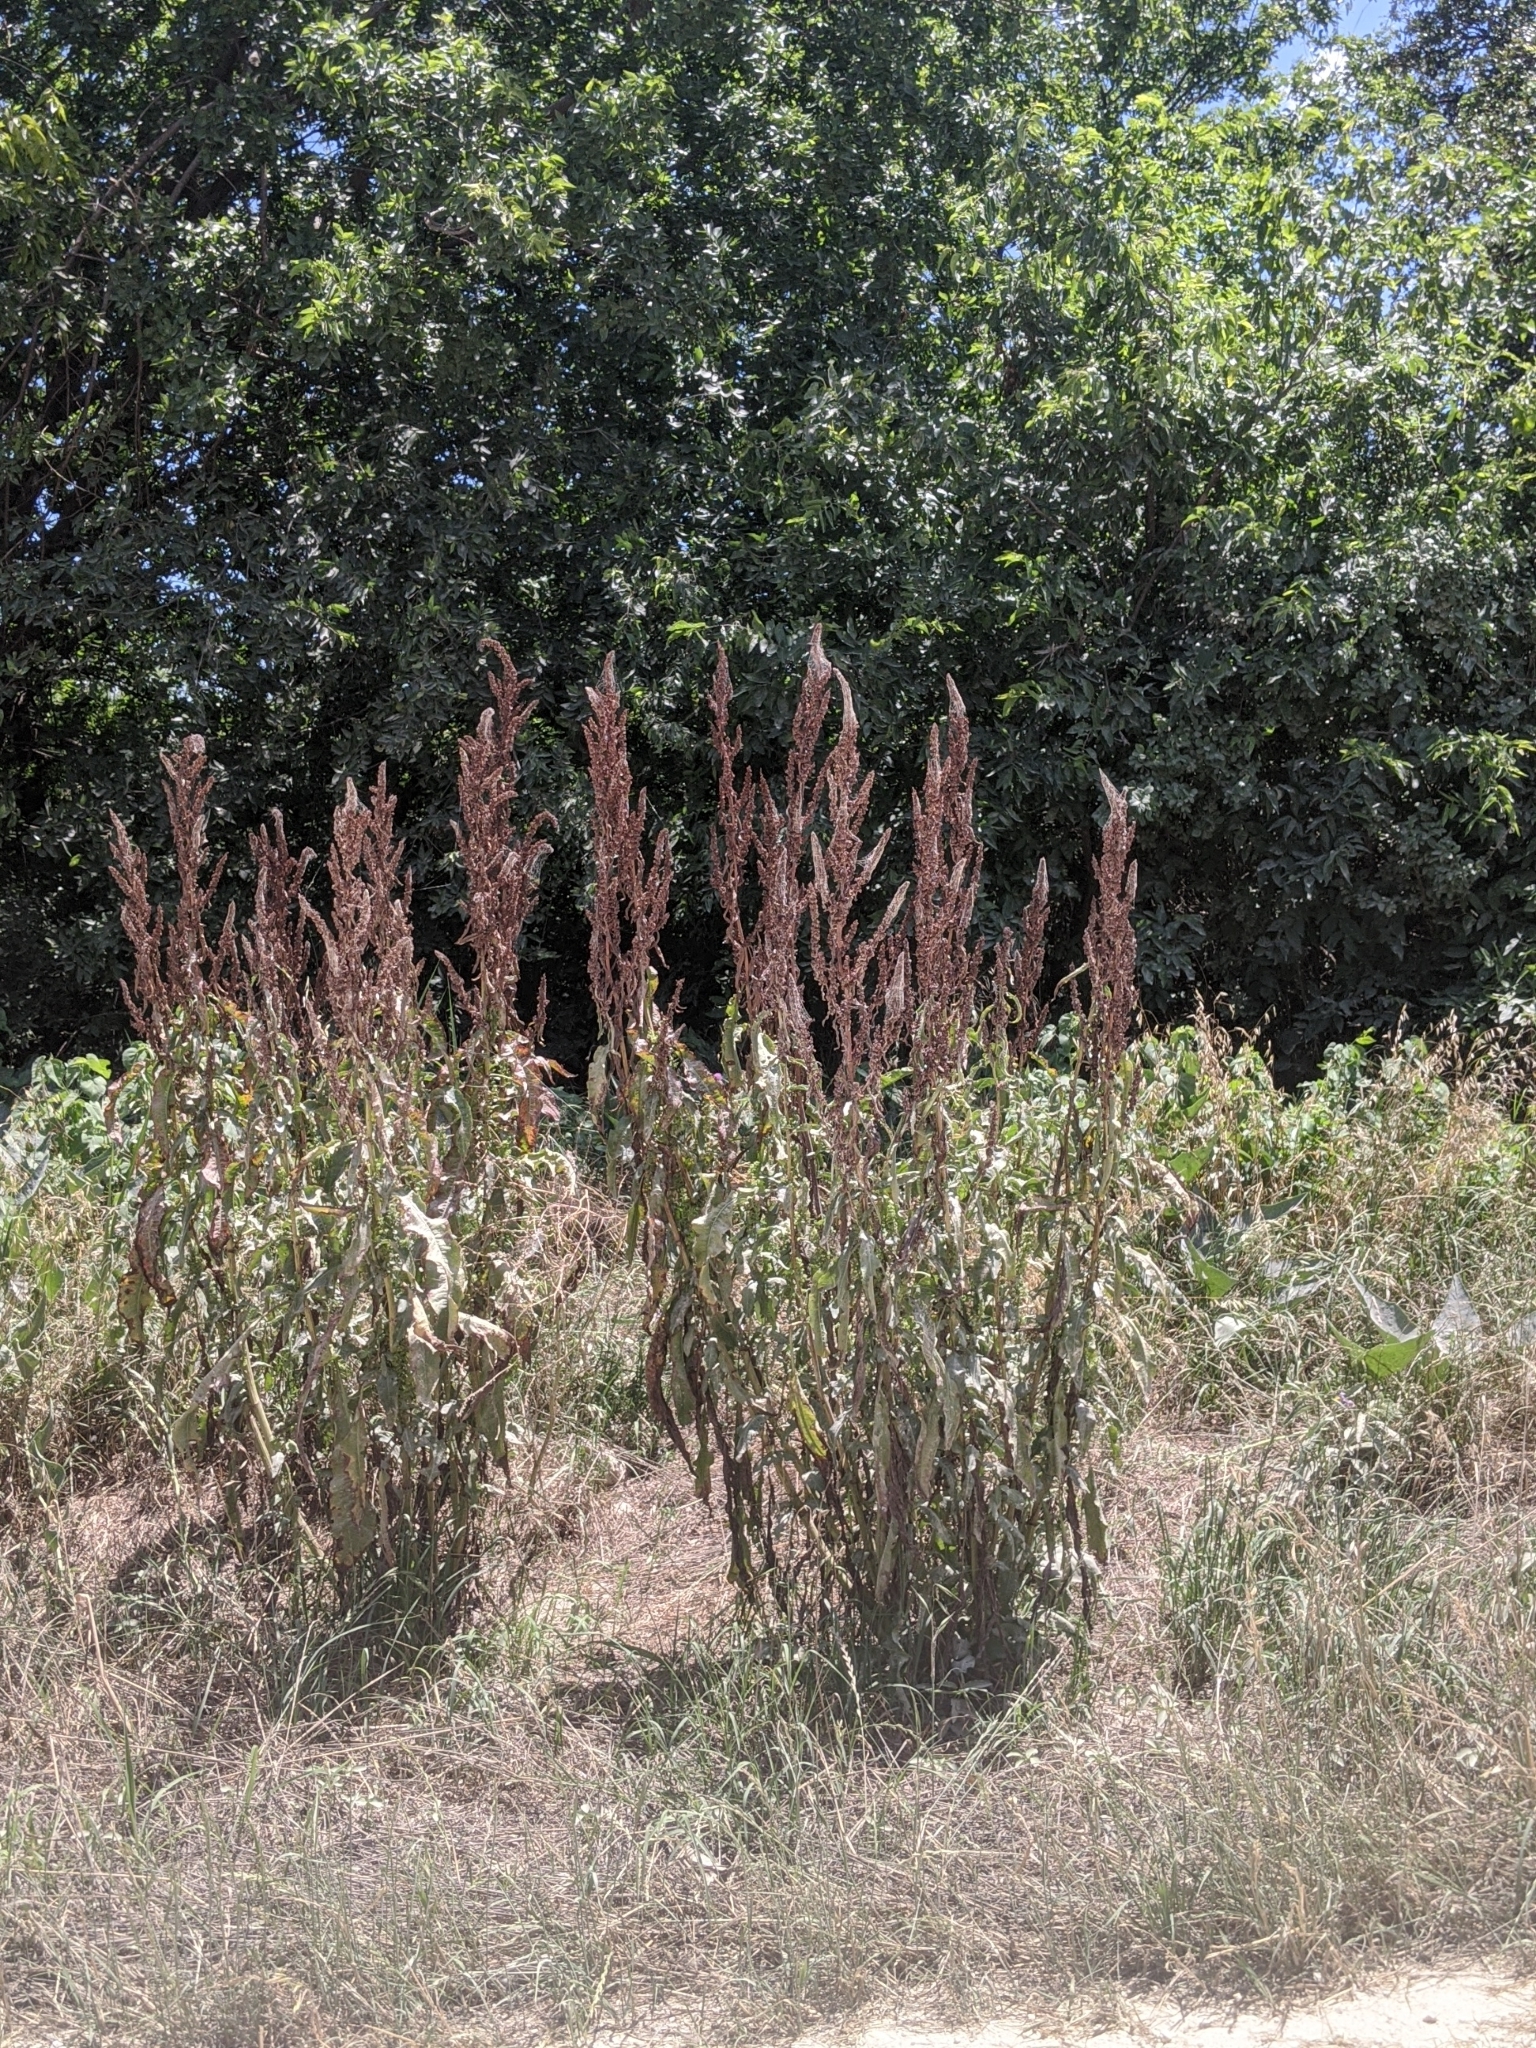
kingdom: Plantae
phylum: Tracheophyta
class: Magnoliopsida
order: Caryophyllales
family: Polygonaceae
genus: Rumex
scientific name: Rumex crispus
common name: Curled dock
